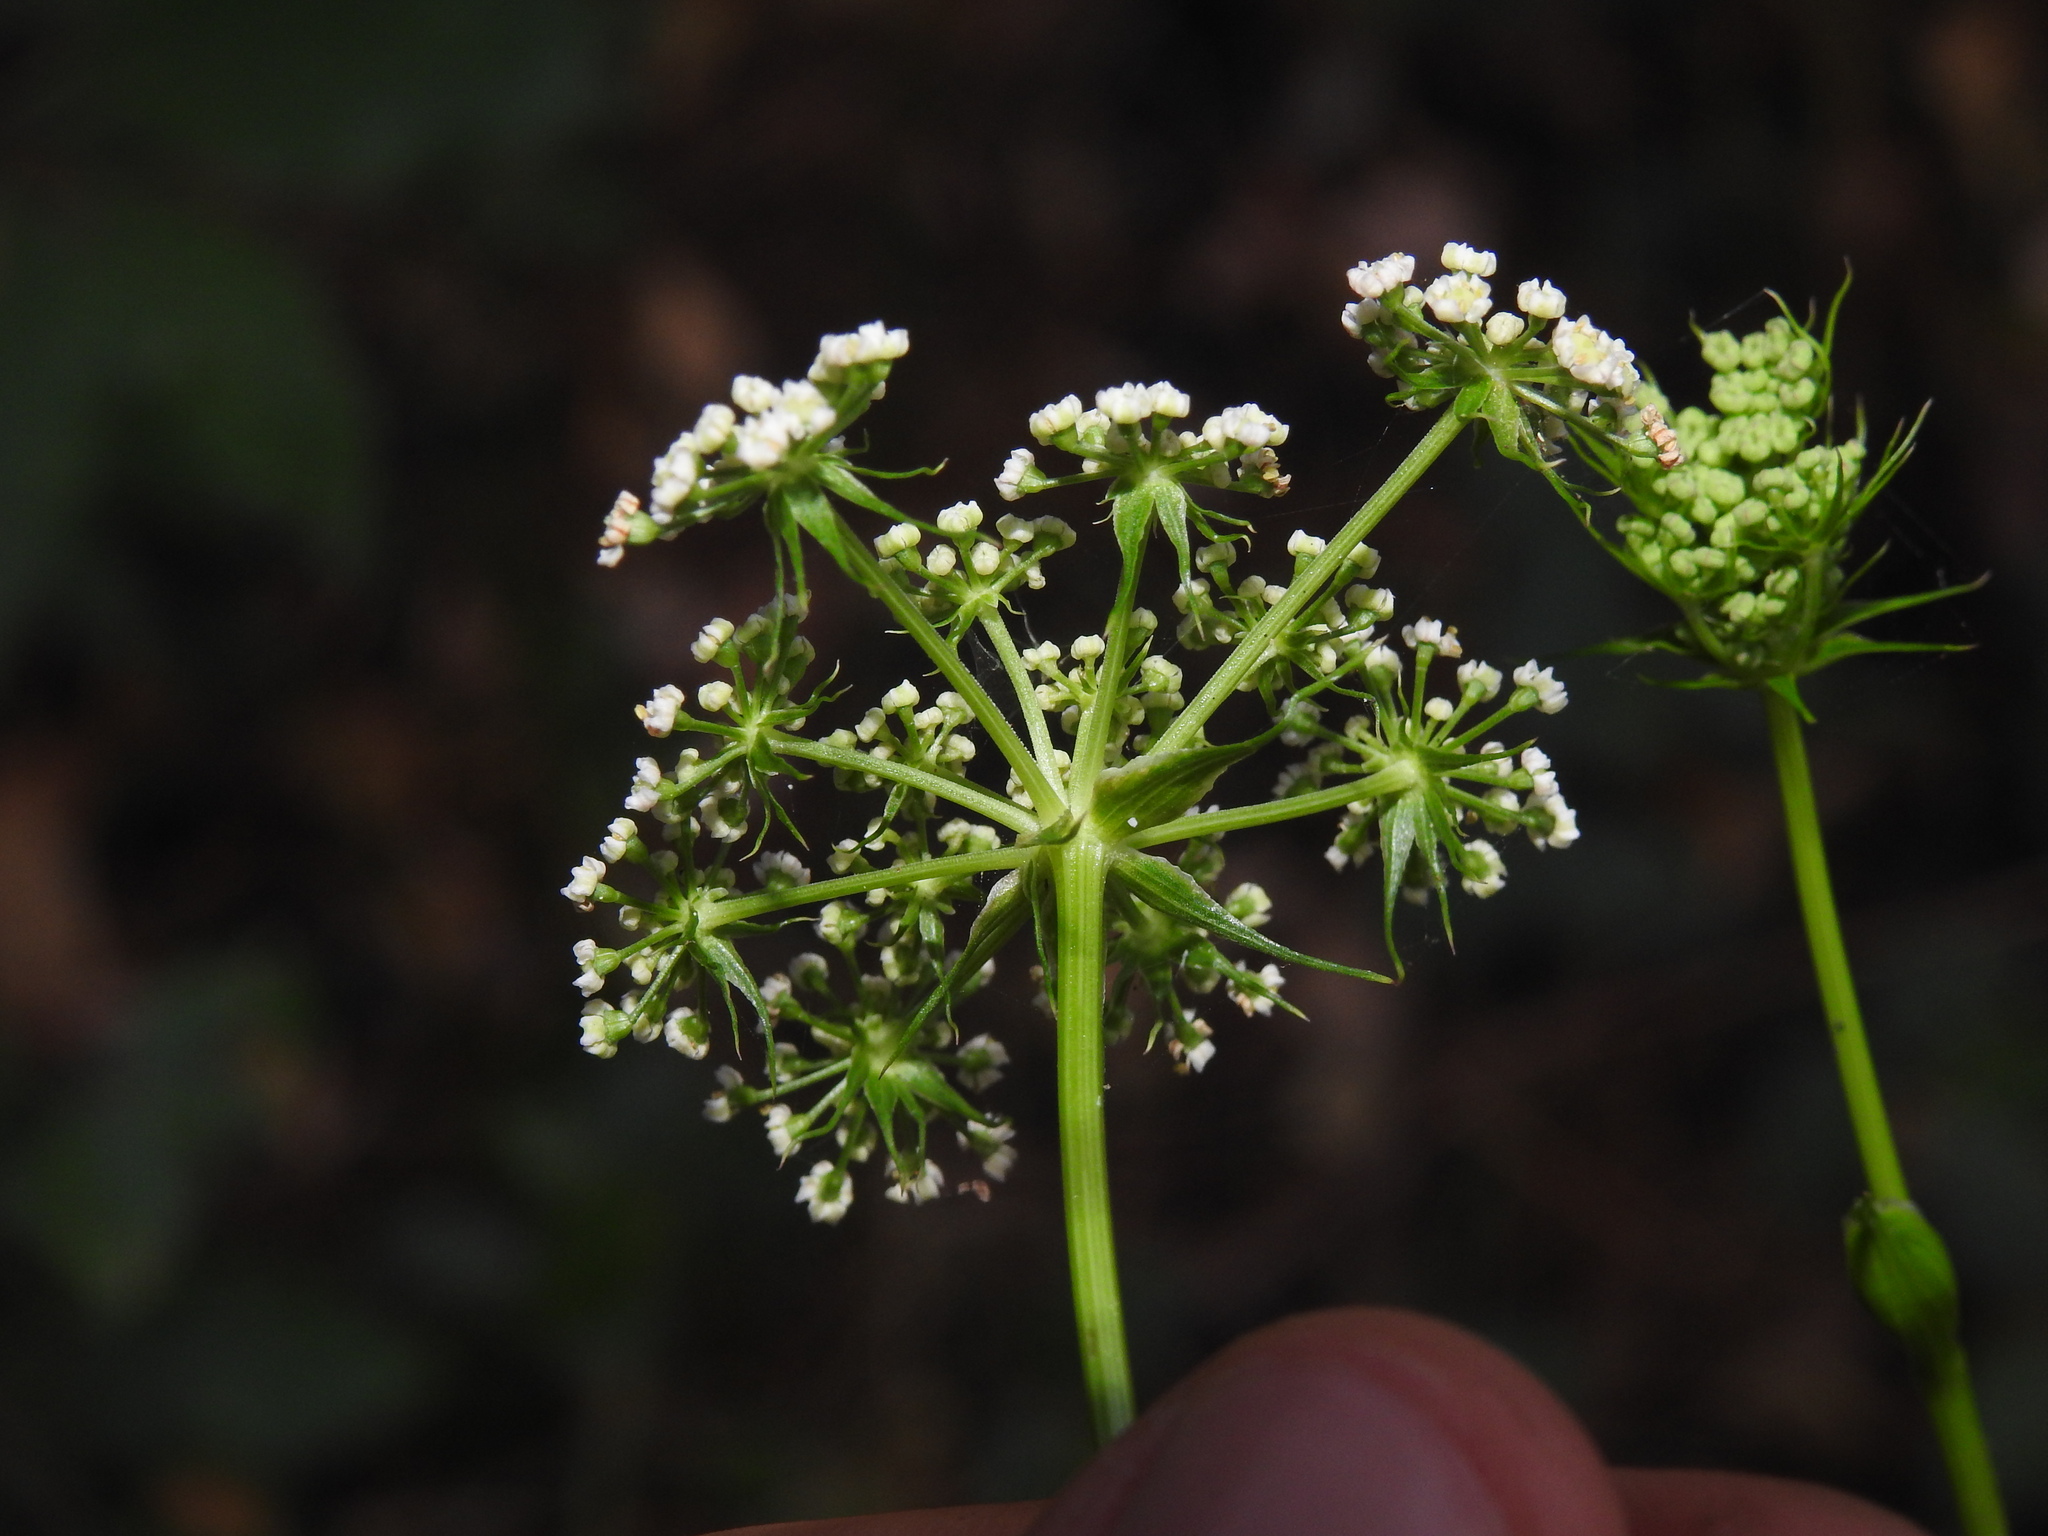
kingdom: Plantae
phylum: Tracheophyta
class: Magnoliopsida
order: Apiales
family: Apiaceae
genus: Thysselinum
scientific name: Thysselinum lancifolium
